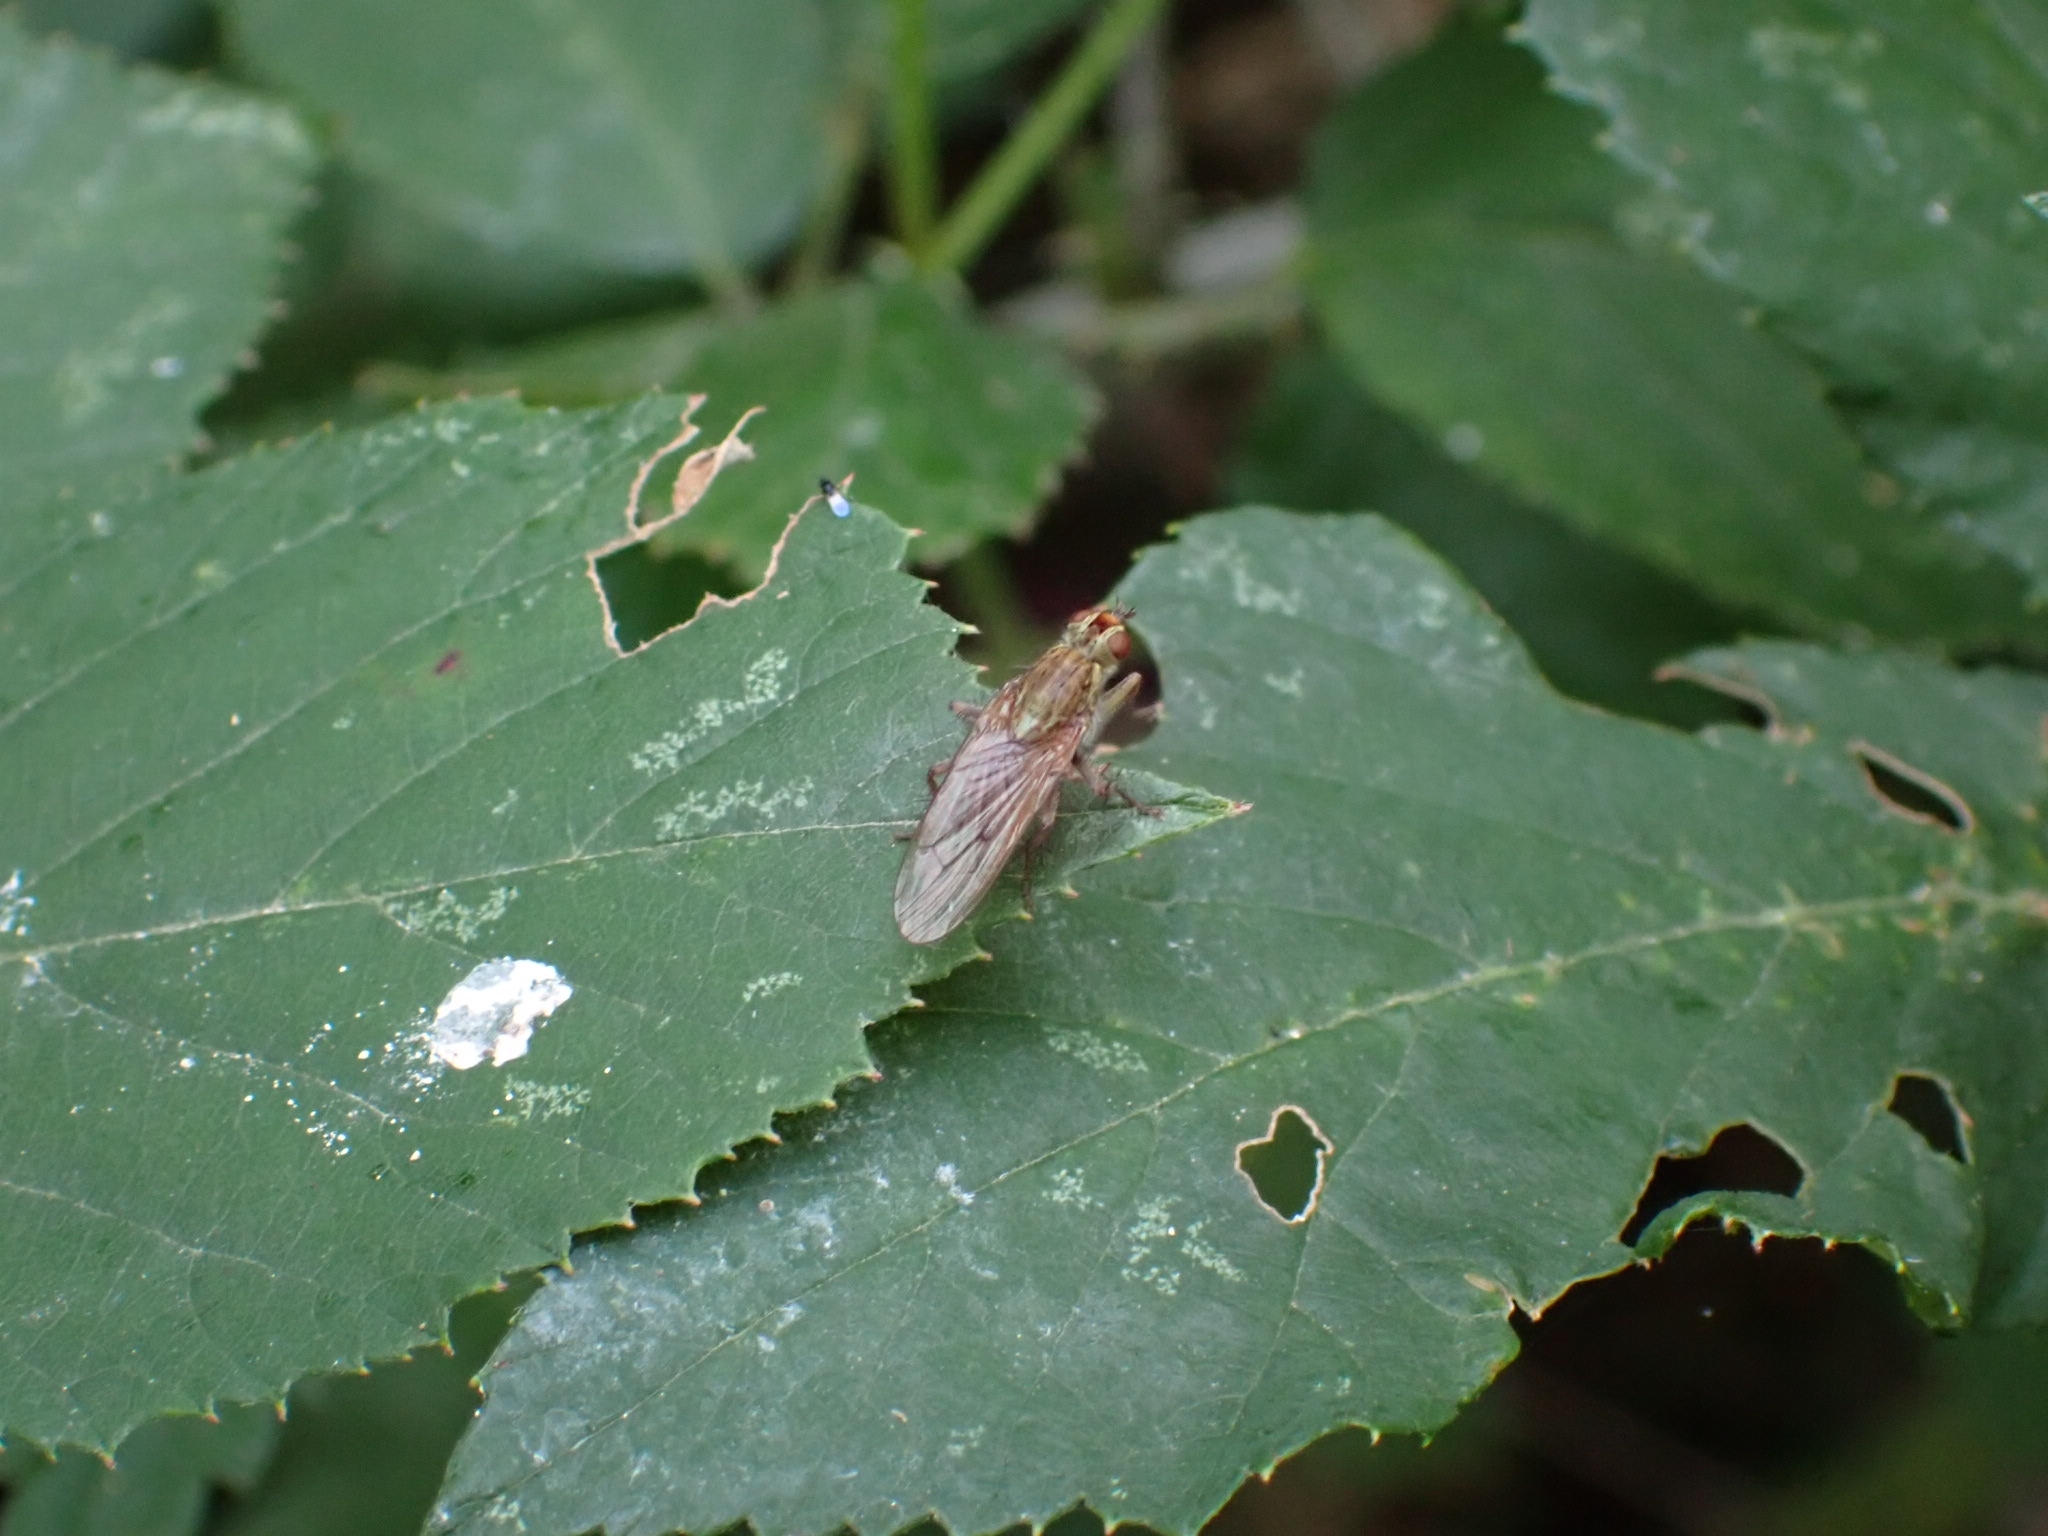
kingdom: Animalia
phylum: Arthropoda
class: Insecta
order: Diptera
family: Scathophagidae
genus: Scathophaga
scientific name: Scathophaga stercoraria
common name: Yellow dung fly
